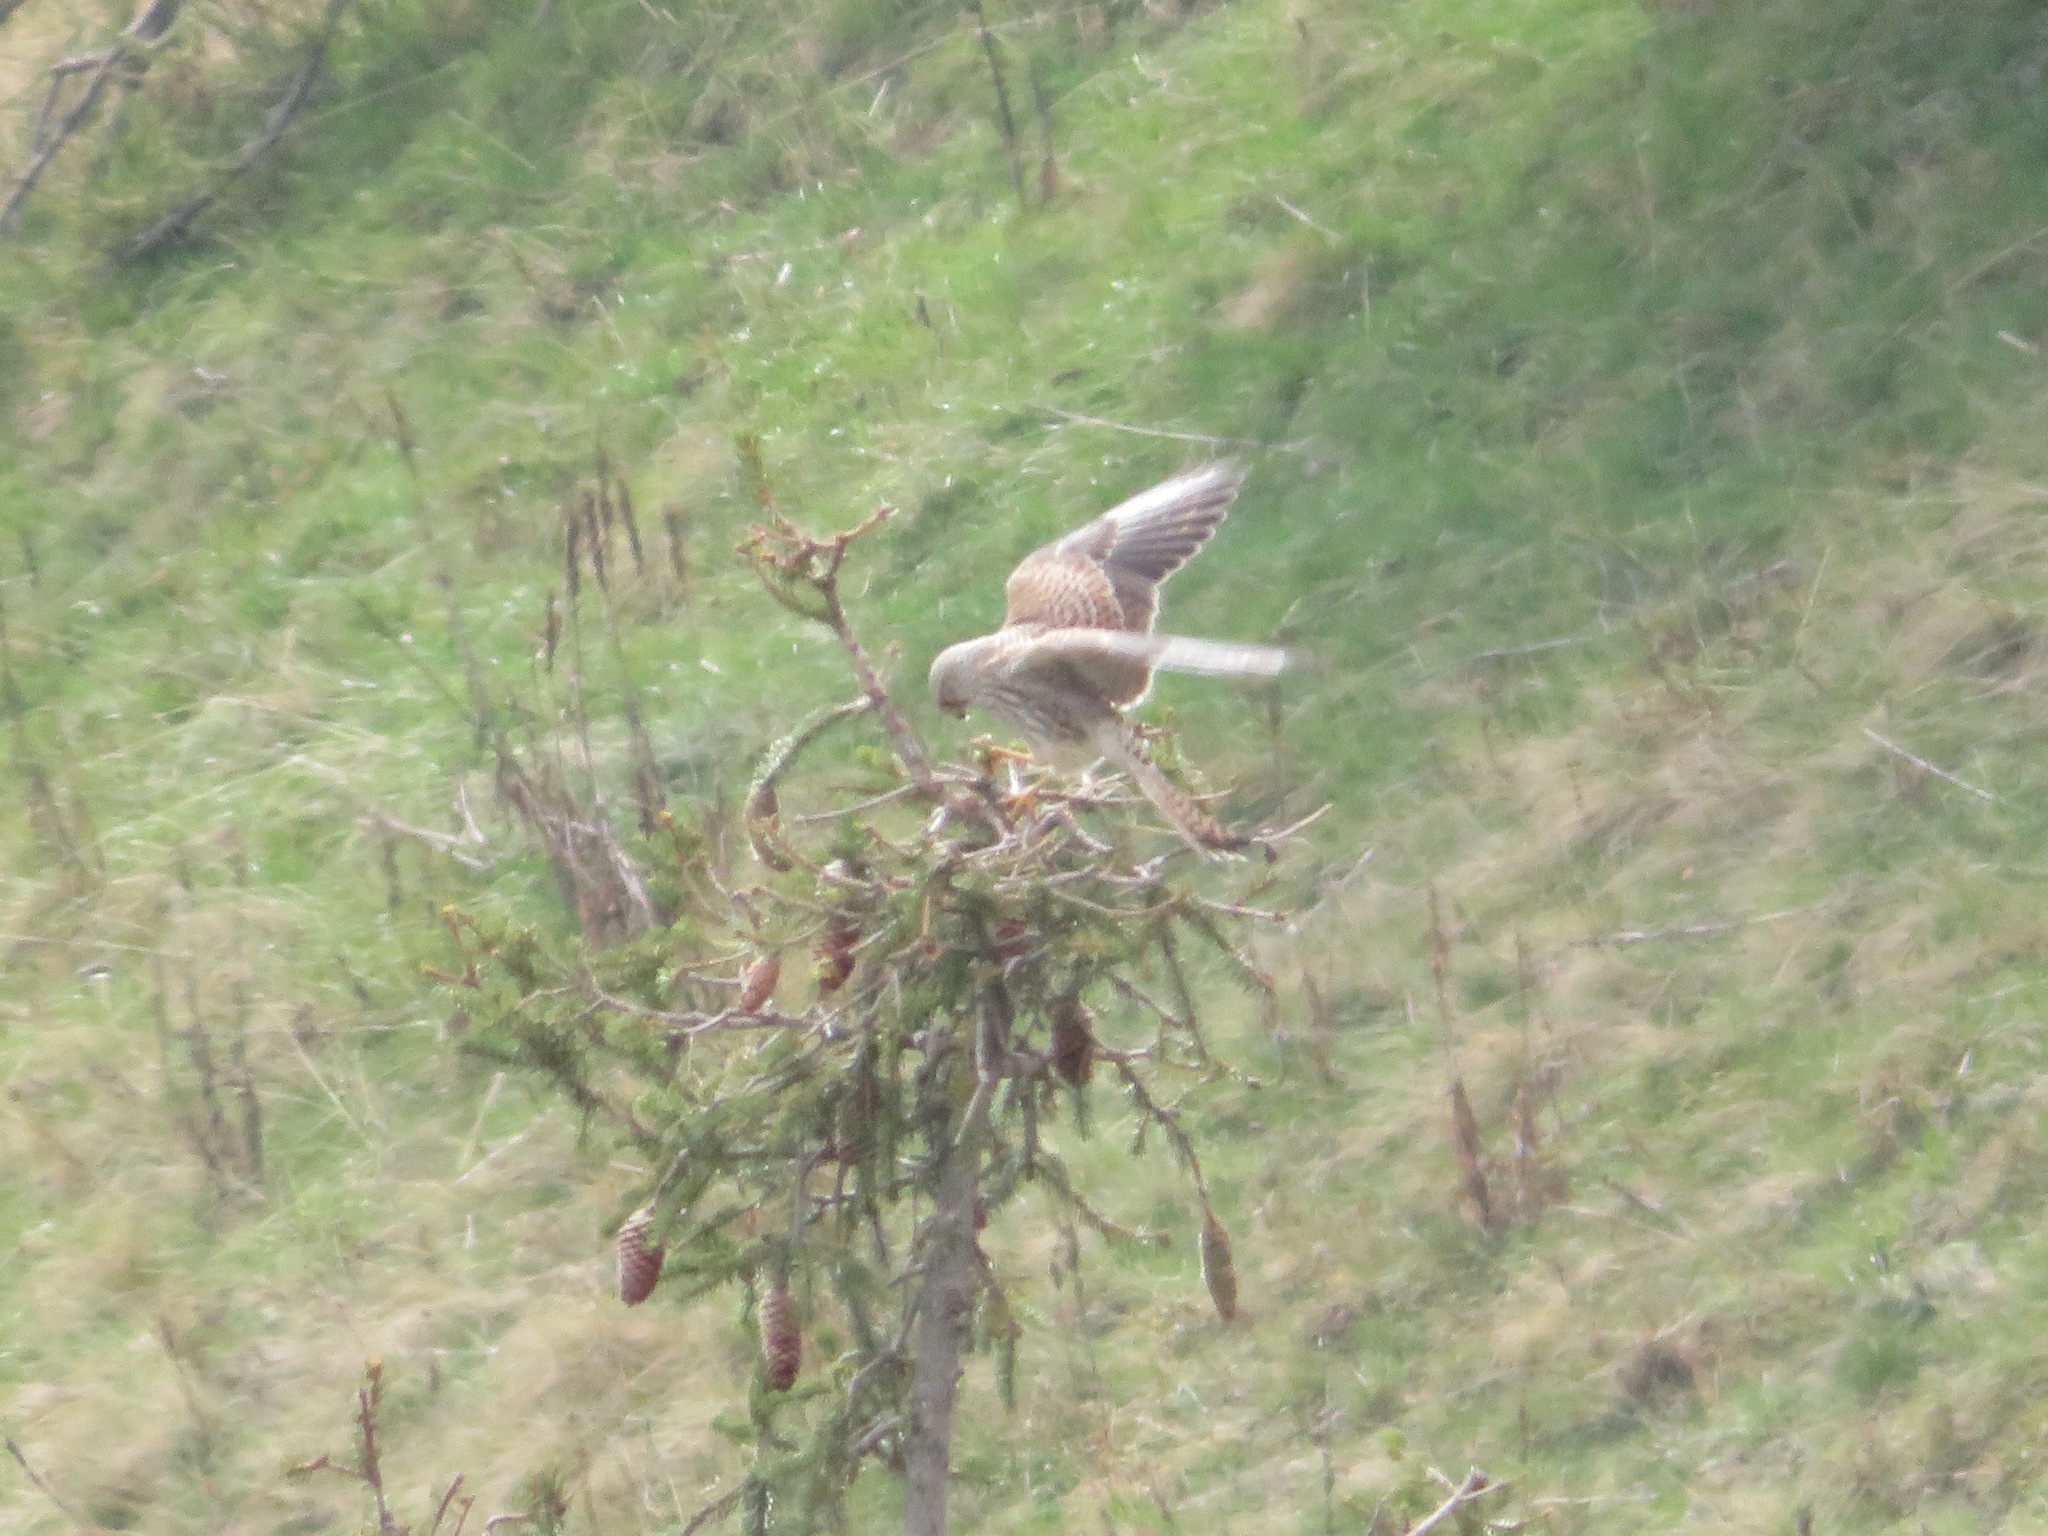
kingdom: Animalia
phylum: Chordata
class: Aves
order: Falconiformes
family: Falconidae
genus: Falco
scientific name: Falco tinnunculus
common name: Common kestrel
